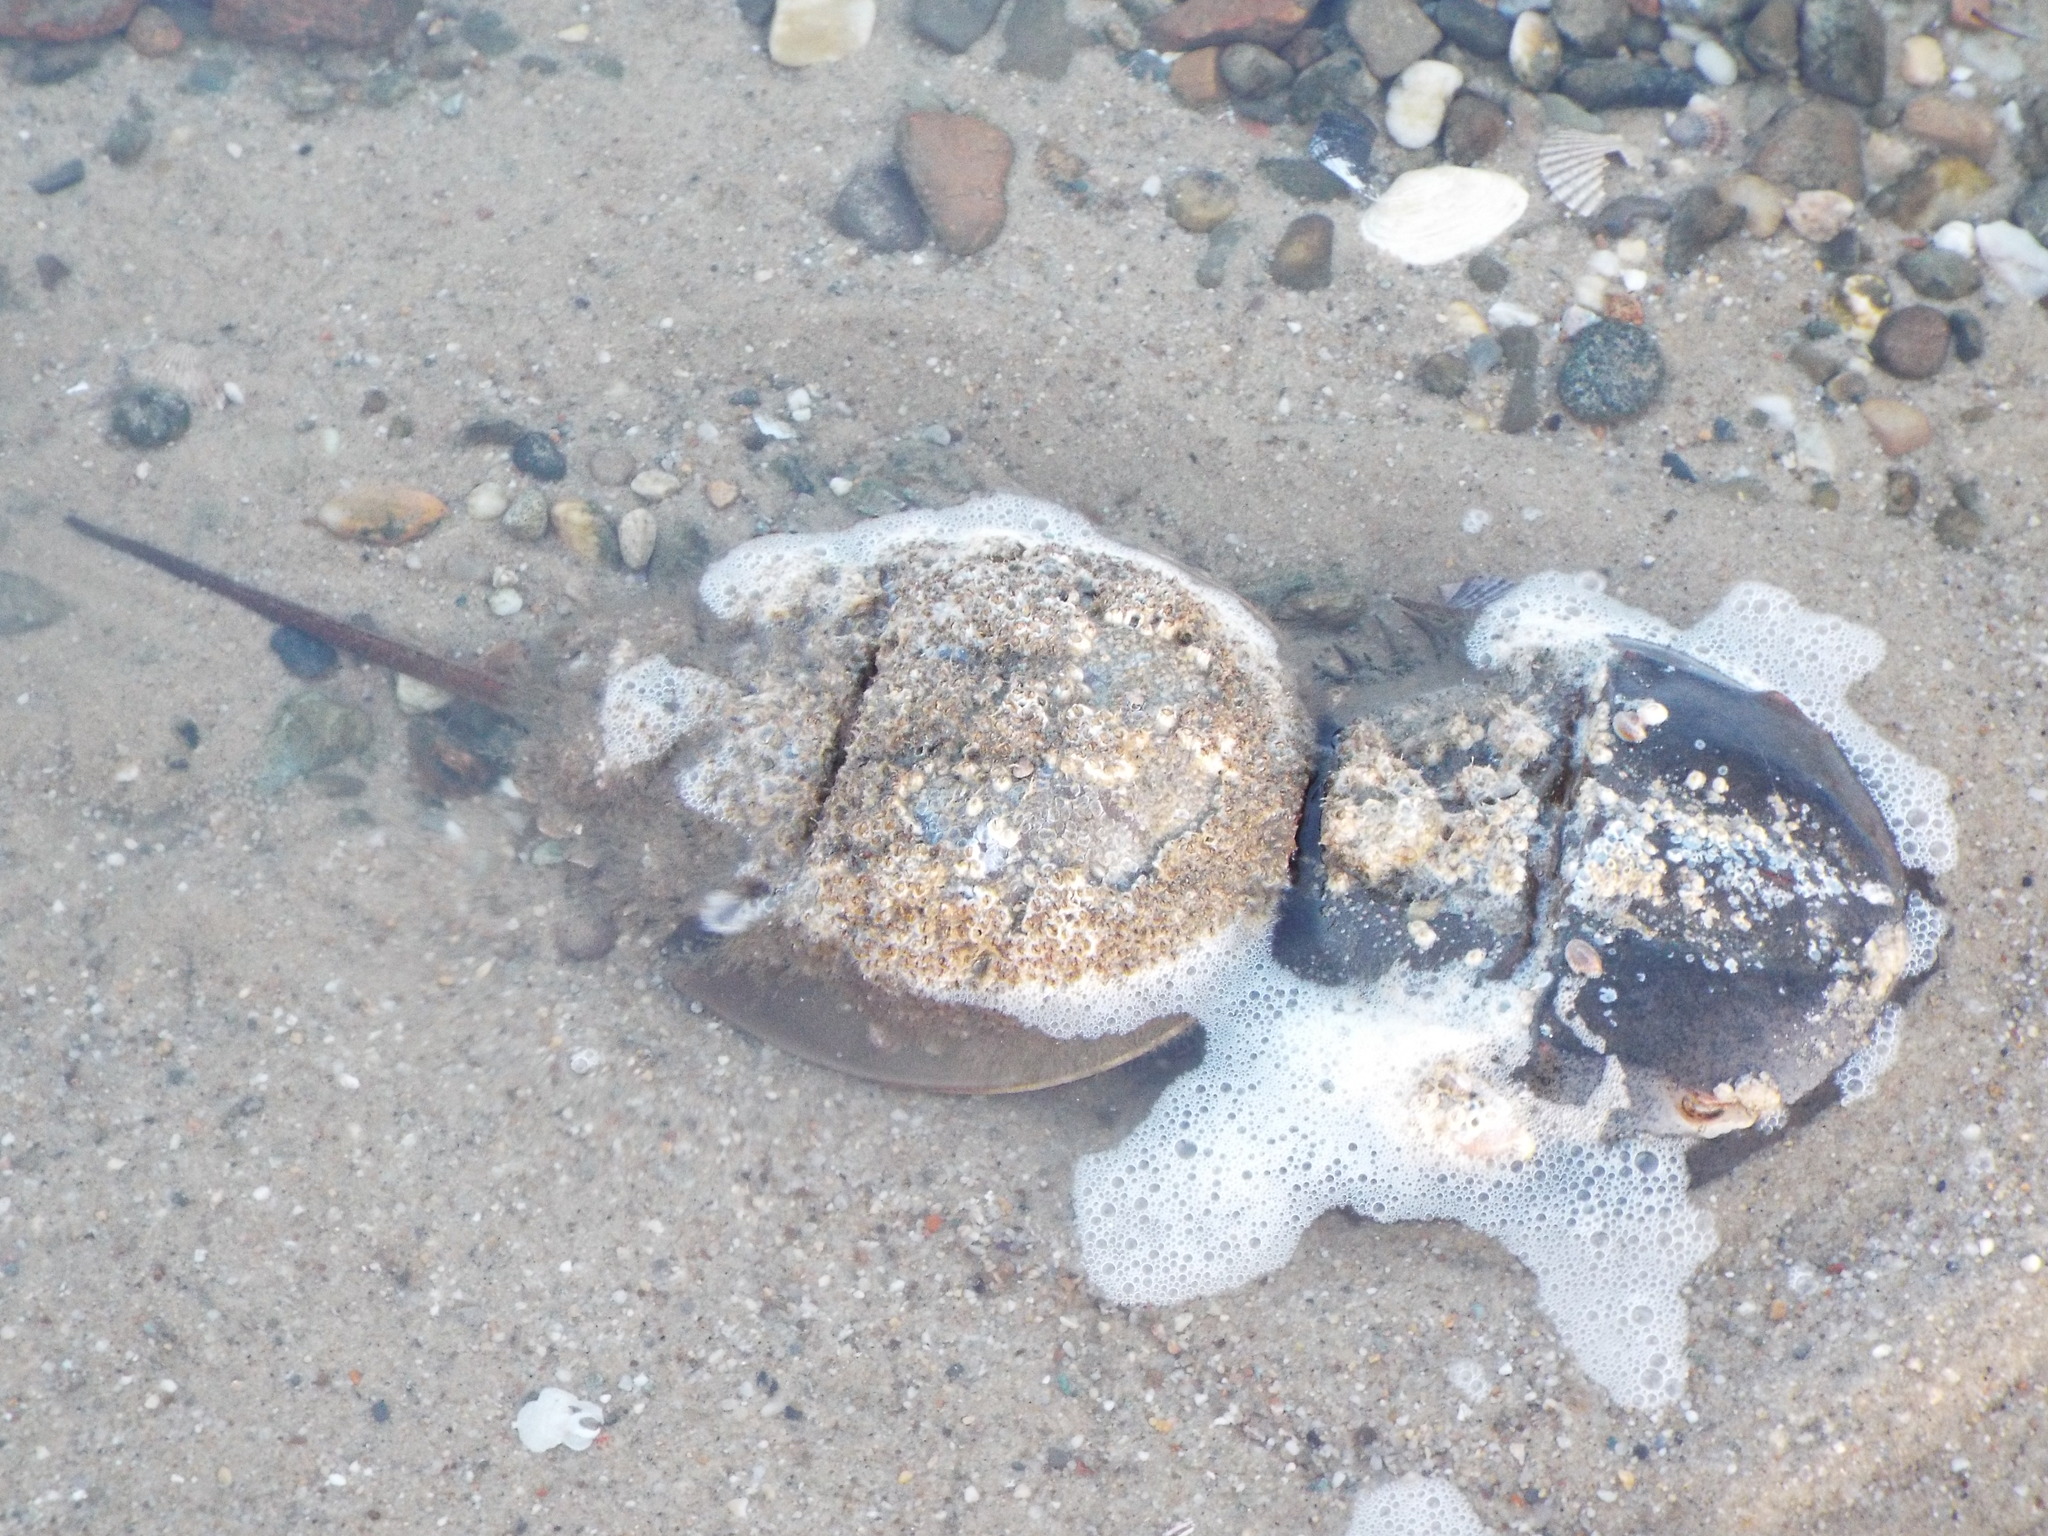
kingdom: Animalia
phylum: Arthropoda
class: Merostomata
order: Xiphosurida
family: Limulidae
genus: Limulus
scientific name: Limulus polyphemus
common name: Horseshoe crab
